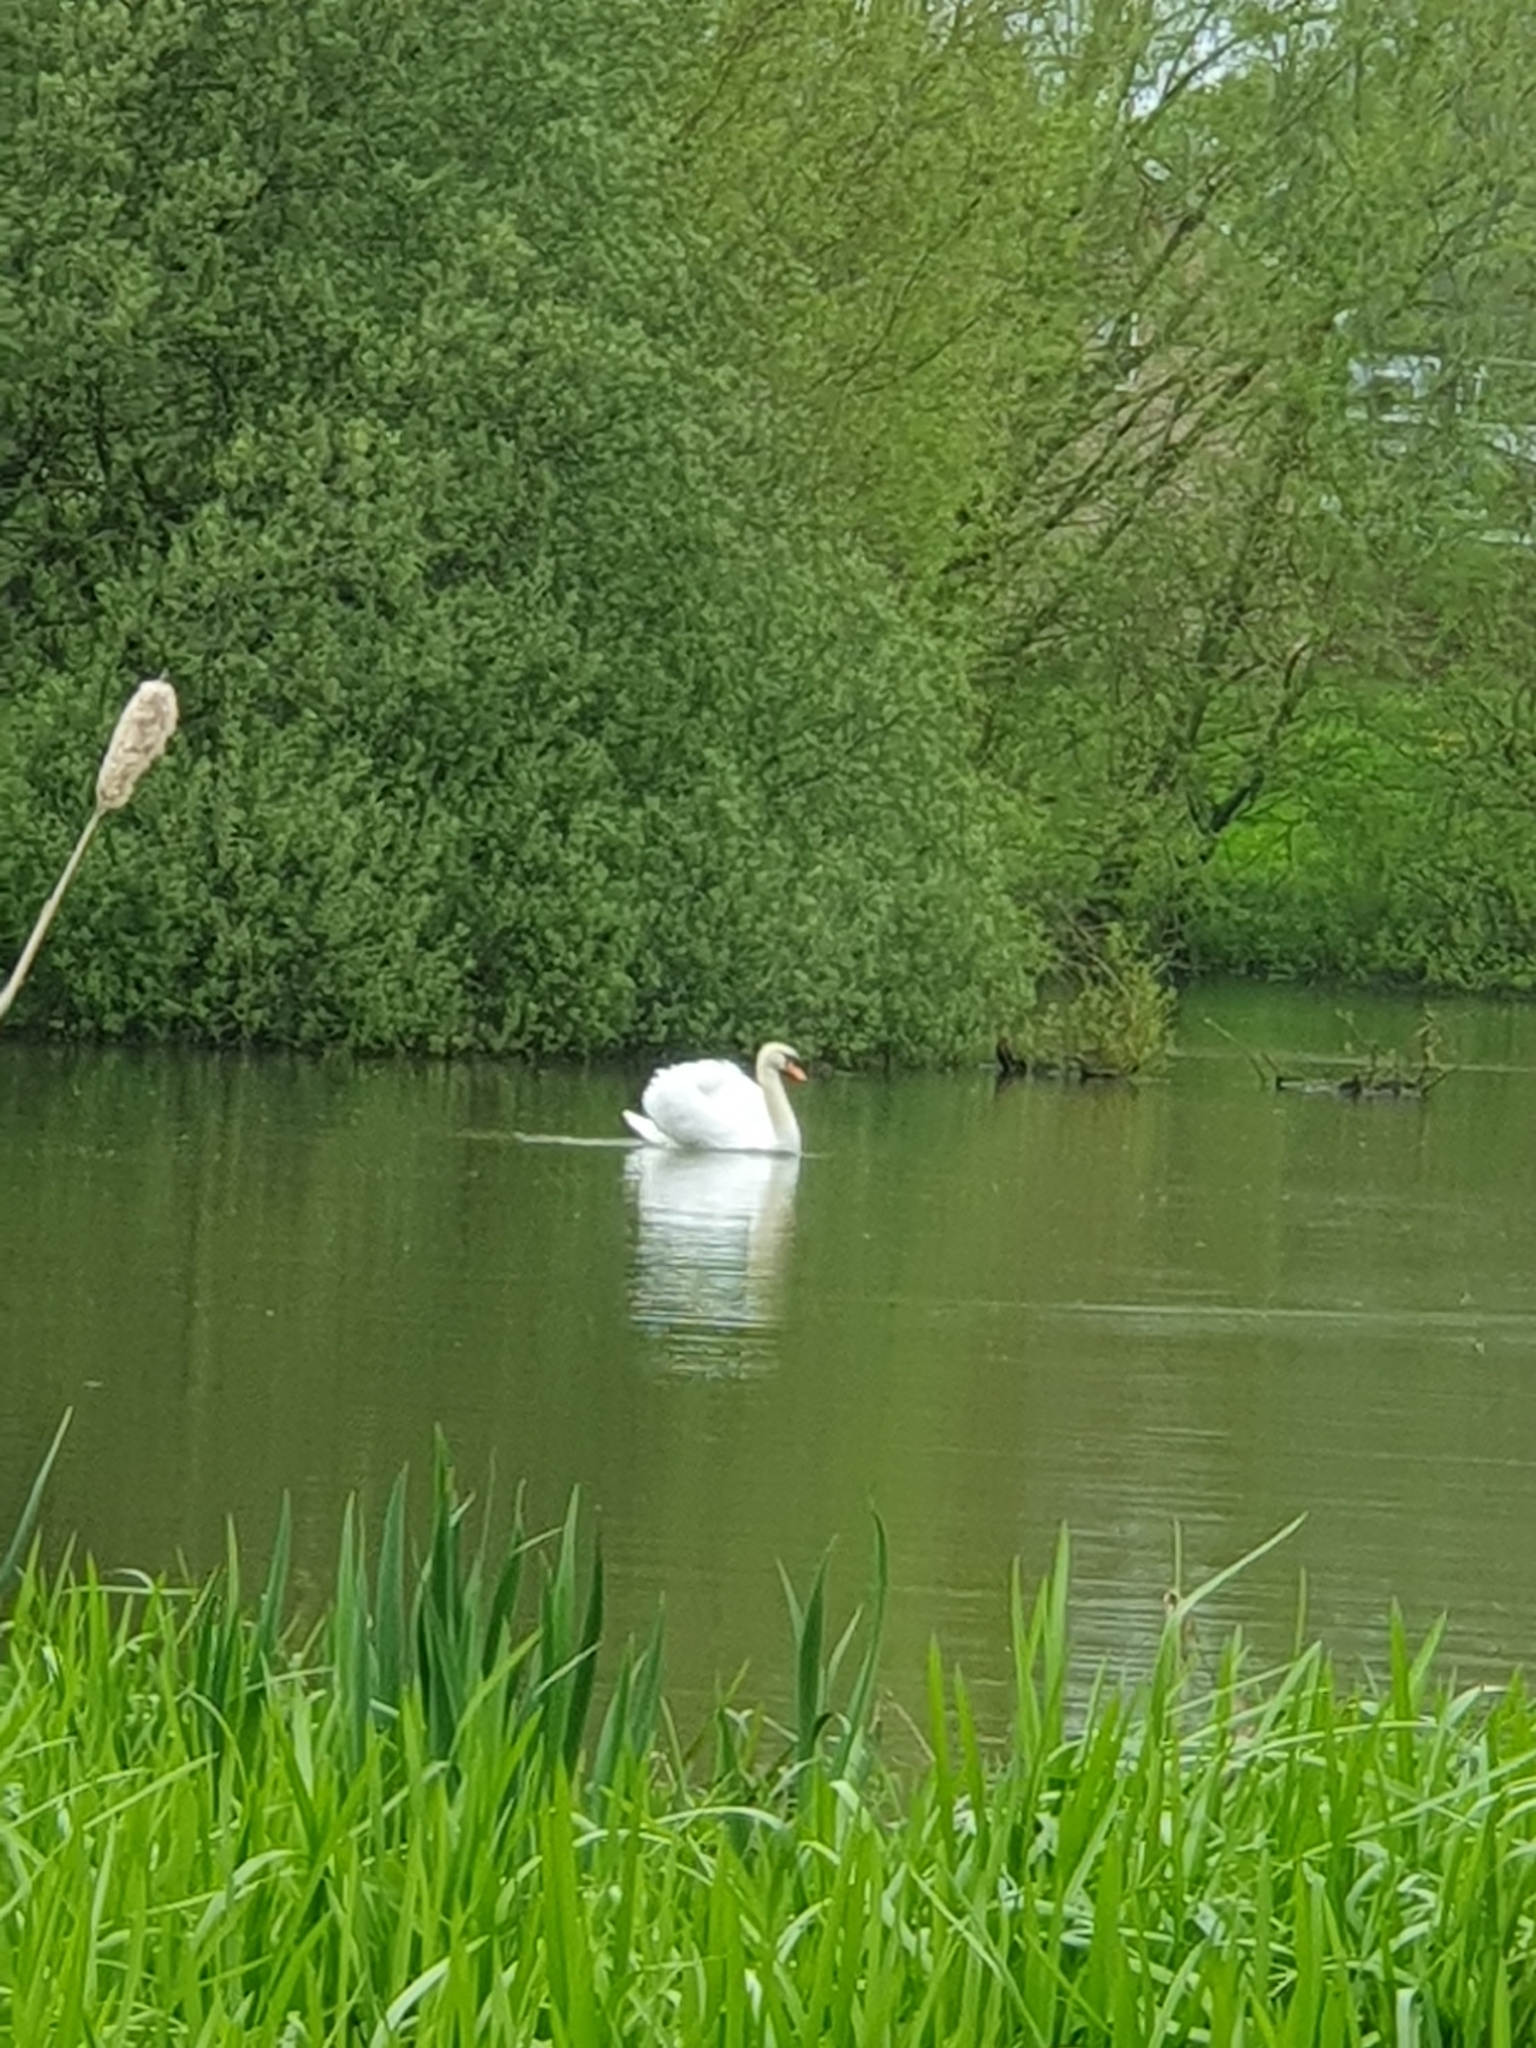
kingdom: Animalia
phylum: Chordata
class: Aves
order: Anseriformes
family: Anatidae
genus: Cygnus
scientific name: Cygnus olor
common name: Mute swan
